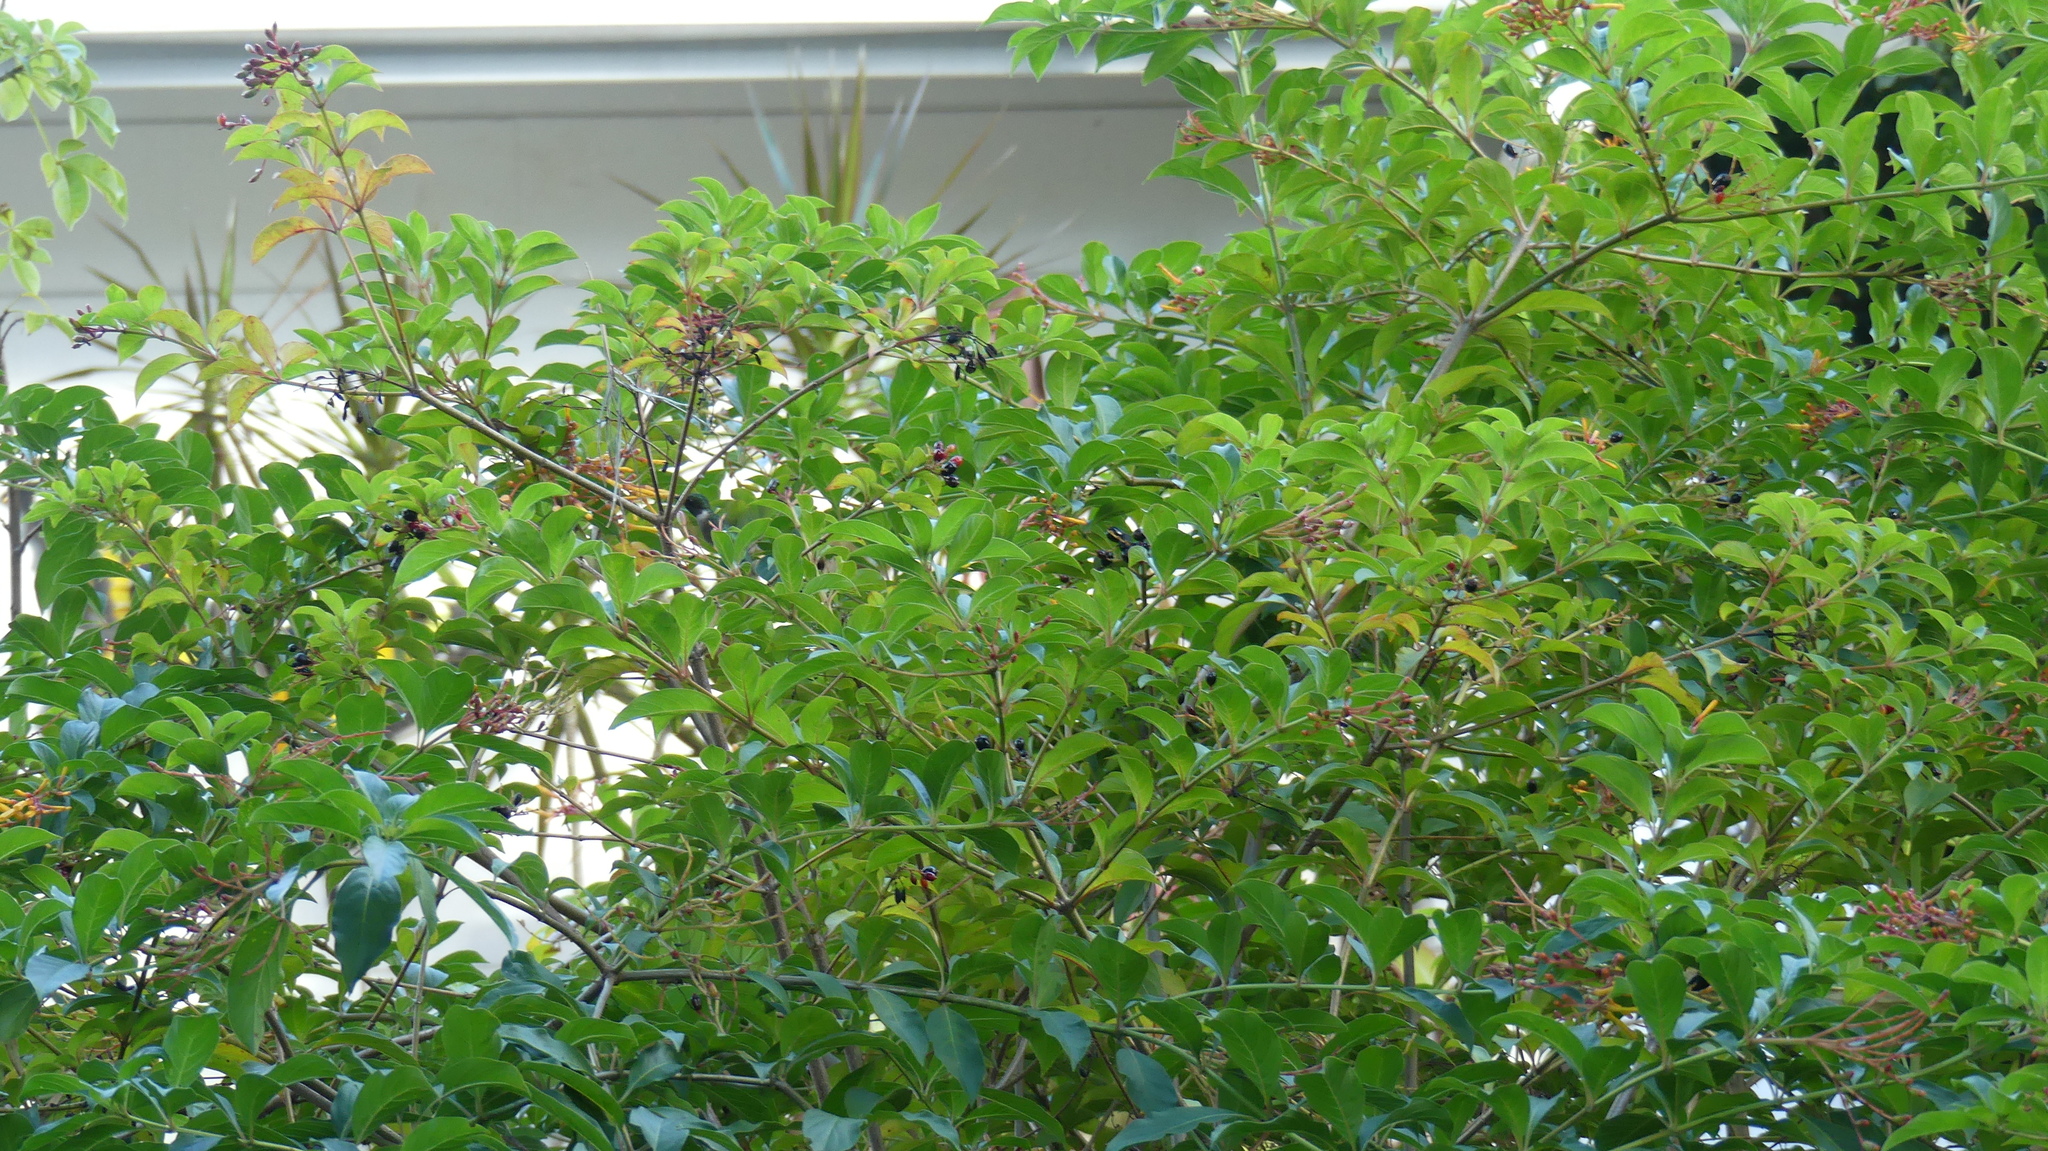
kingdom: Animalia
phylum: Chordata
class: Aves
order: Apodiformes
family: Trochilidae
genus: Archilochus
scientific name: Archilochus colubris
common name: Ruby-throated hummingbird
